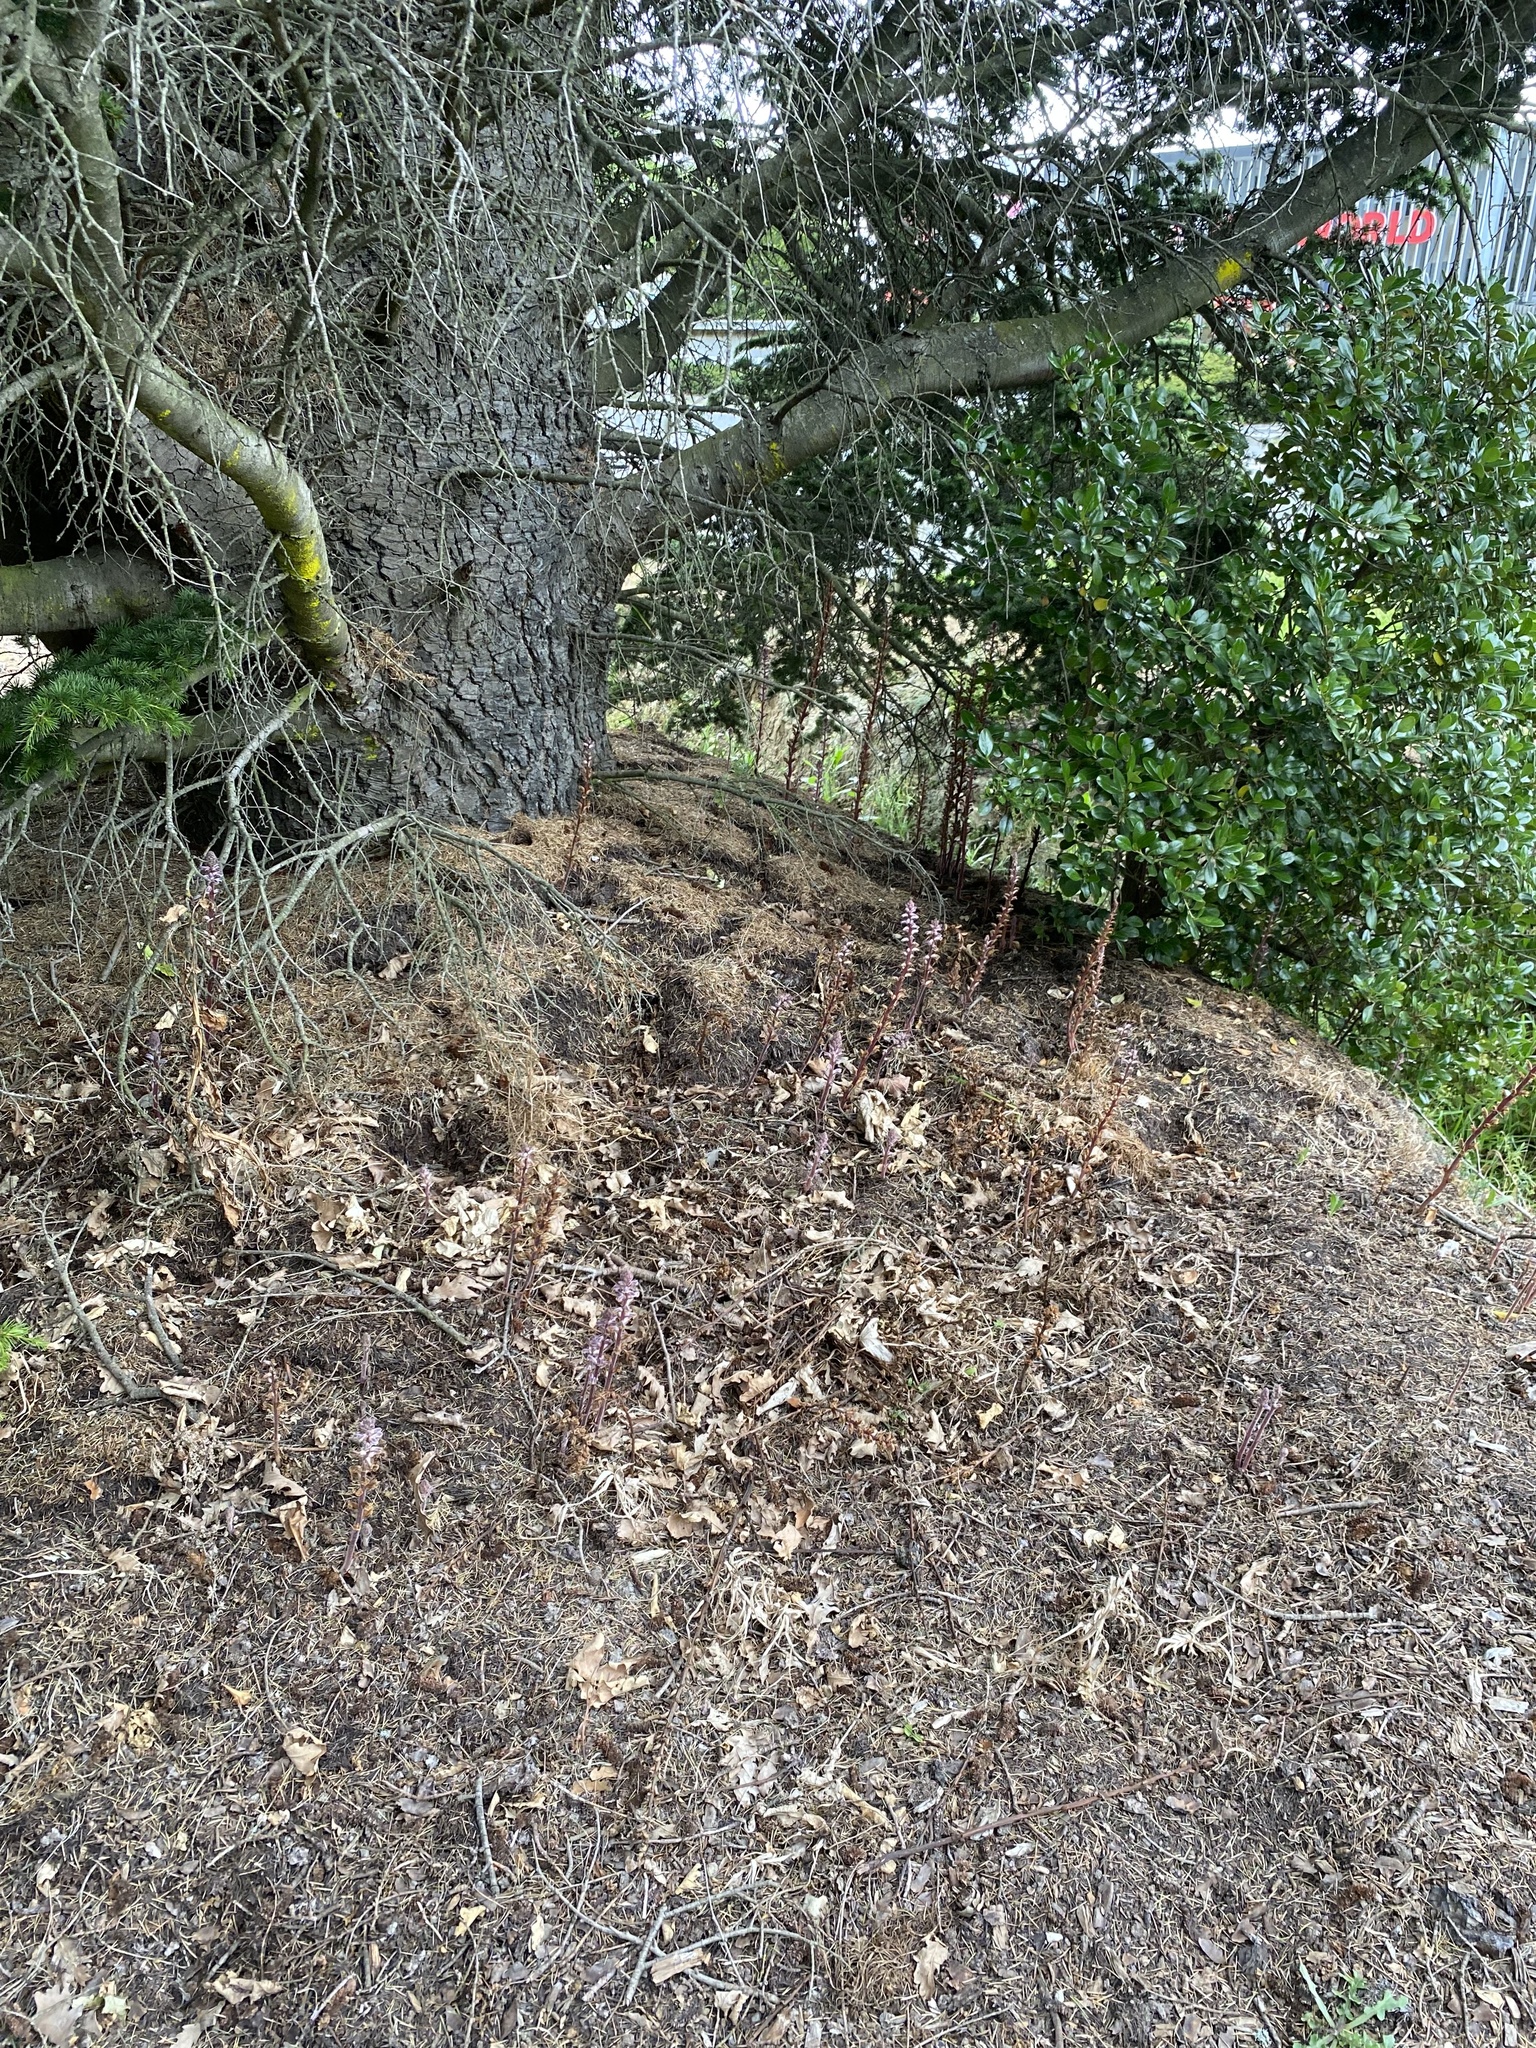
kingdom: Plantae
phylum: Tracheophyta
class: Magnoliopsida
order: Lamiales
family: Orobanchaceae
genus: Orobanche
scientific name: Orobanche minor
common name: Common broomrape
